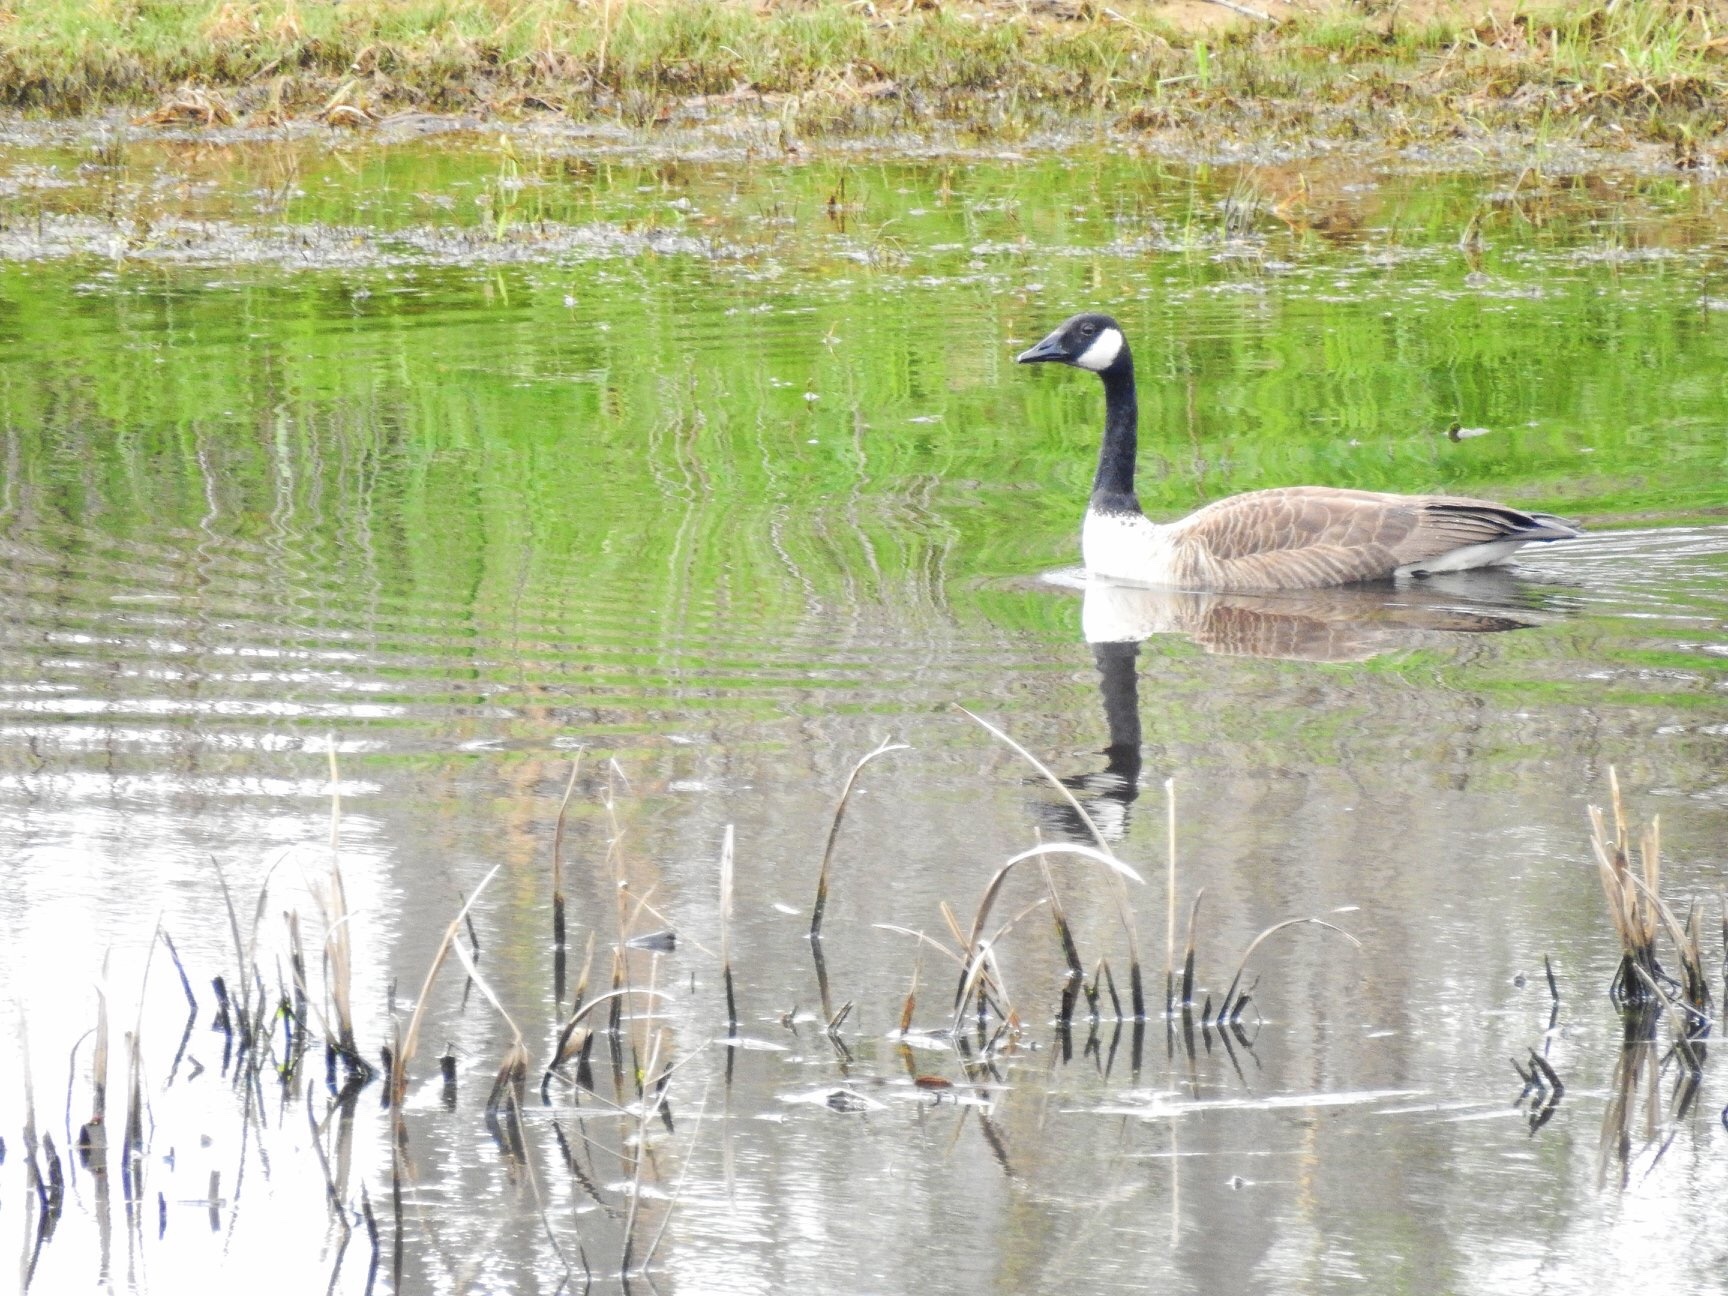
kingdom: Animalia
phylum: Chordata
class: Aves
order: Anseriformes
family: Anatidae
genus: Branta
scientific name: Branta canadensis
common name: Canada goose
